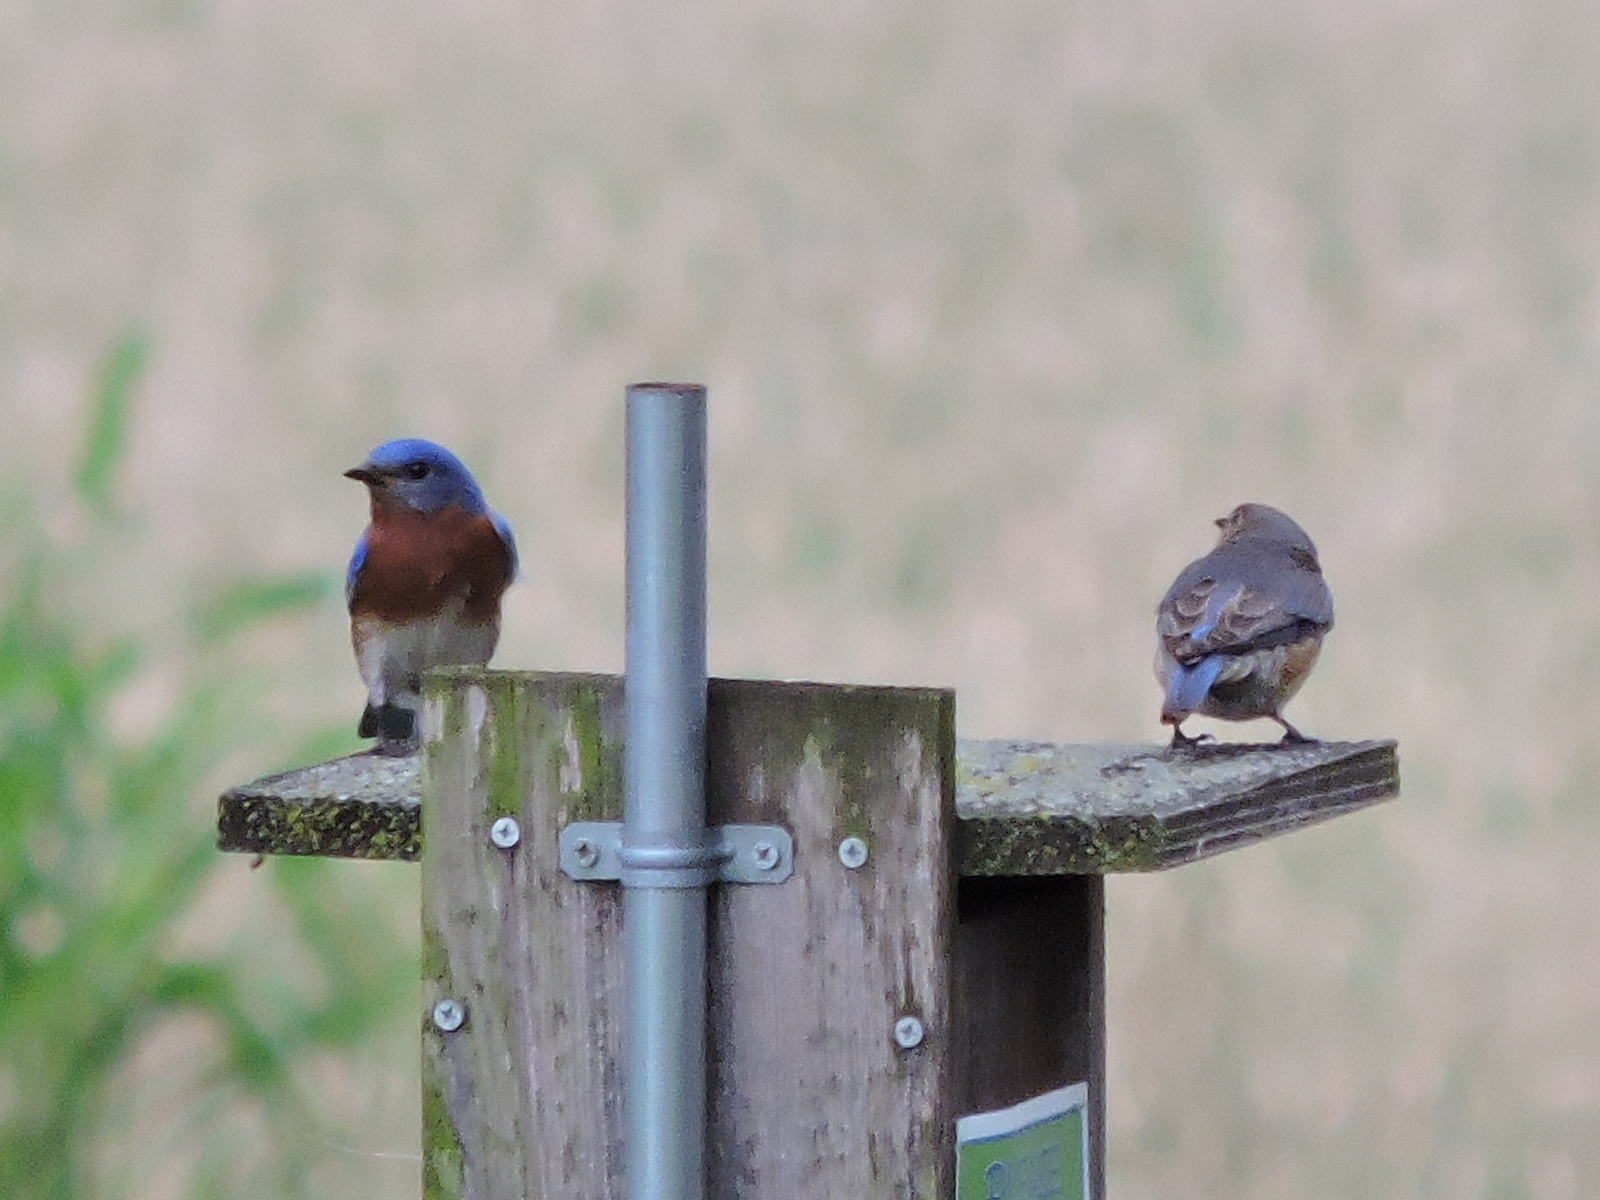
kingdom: Animalia
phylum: Chordata
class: Aves
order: Passeriformes
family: Turdidae
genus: Sialia
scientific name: Sialia sialis
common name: Eastern bluebird
